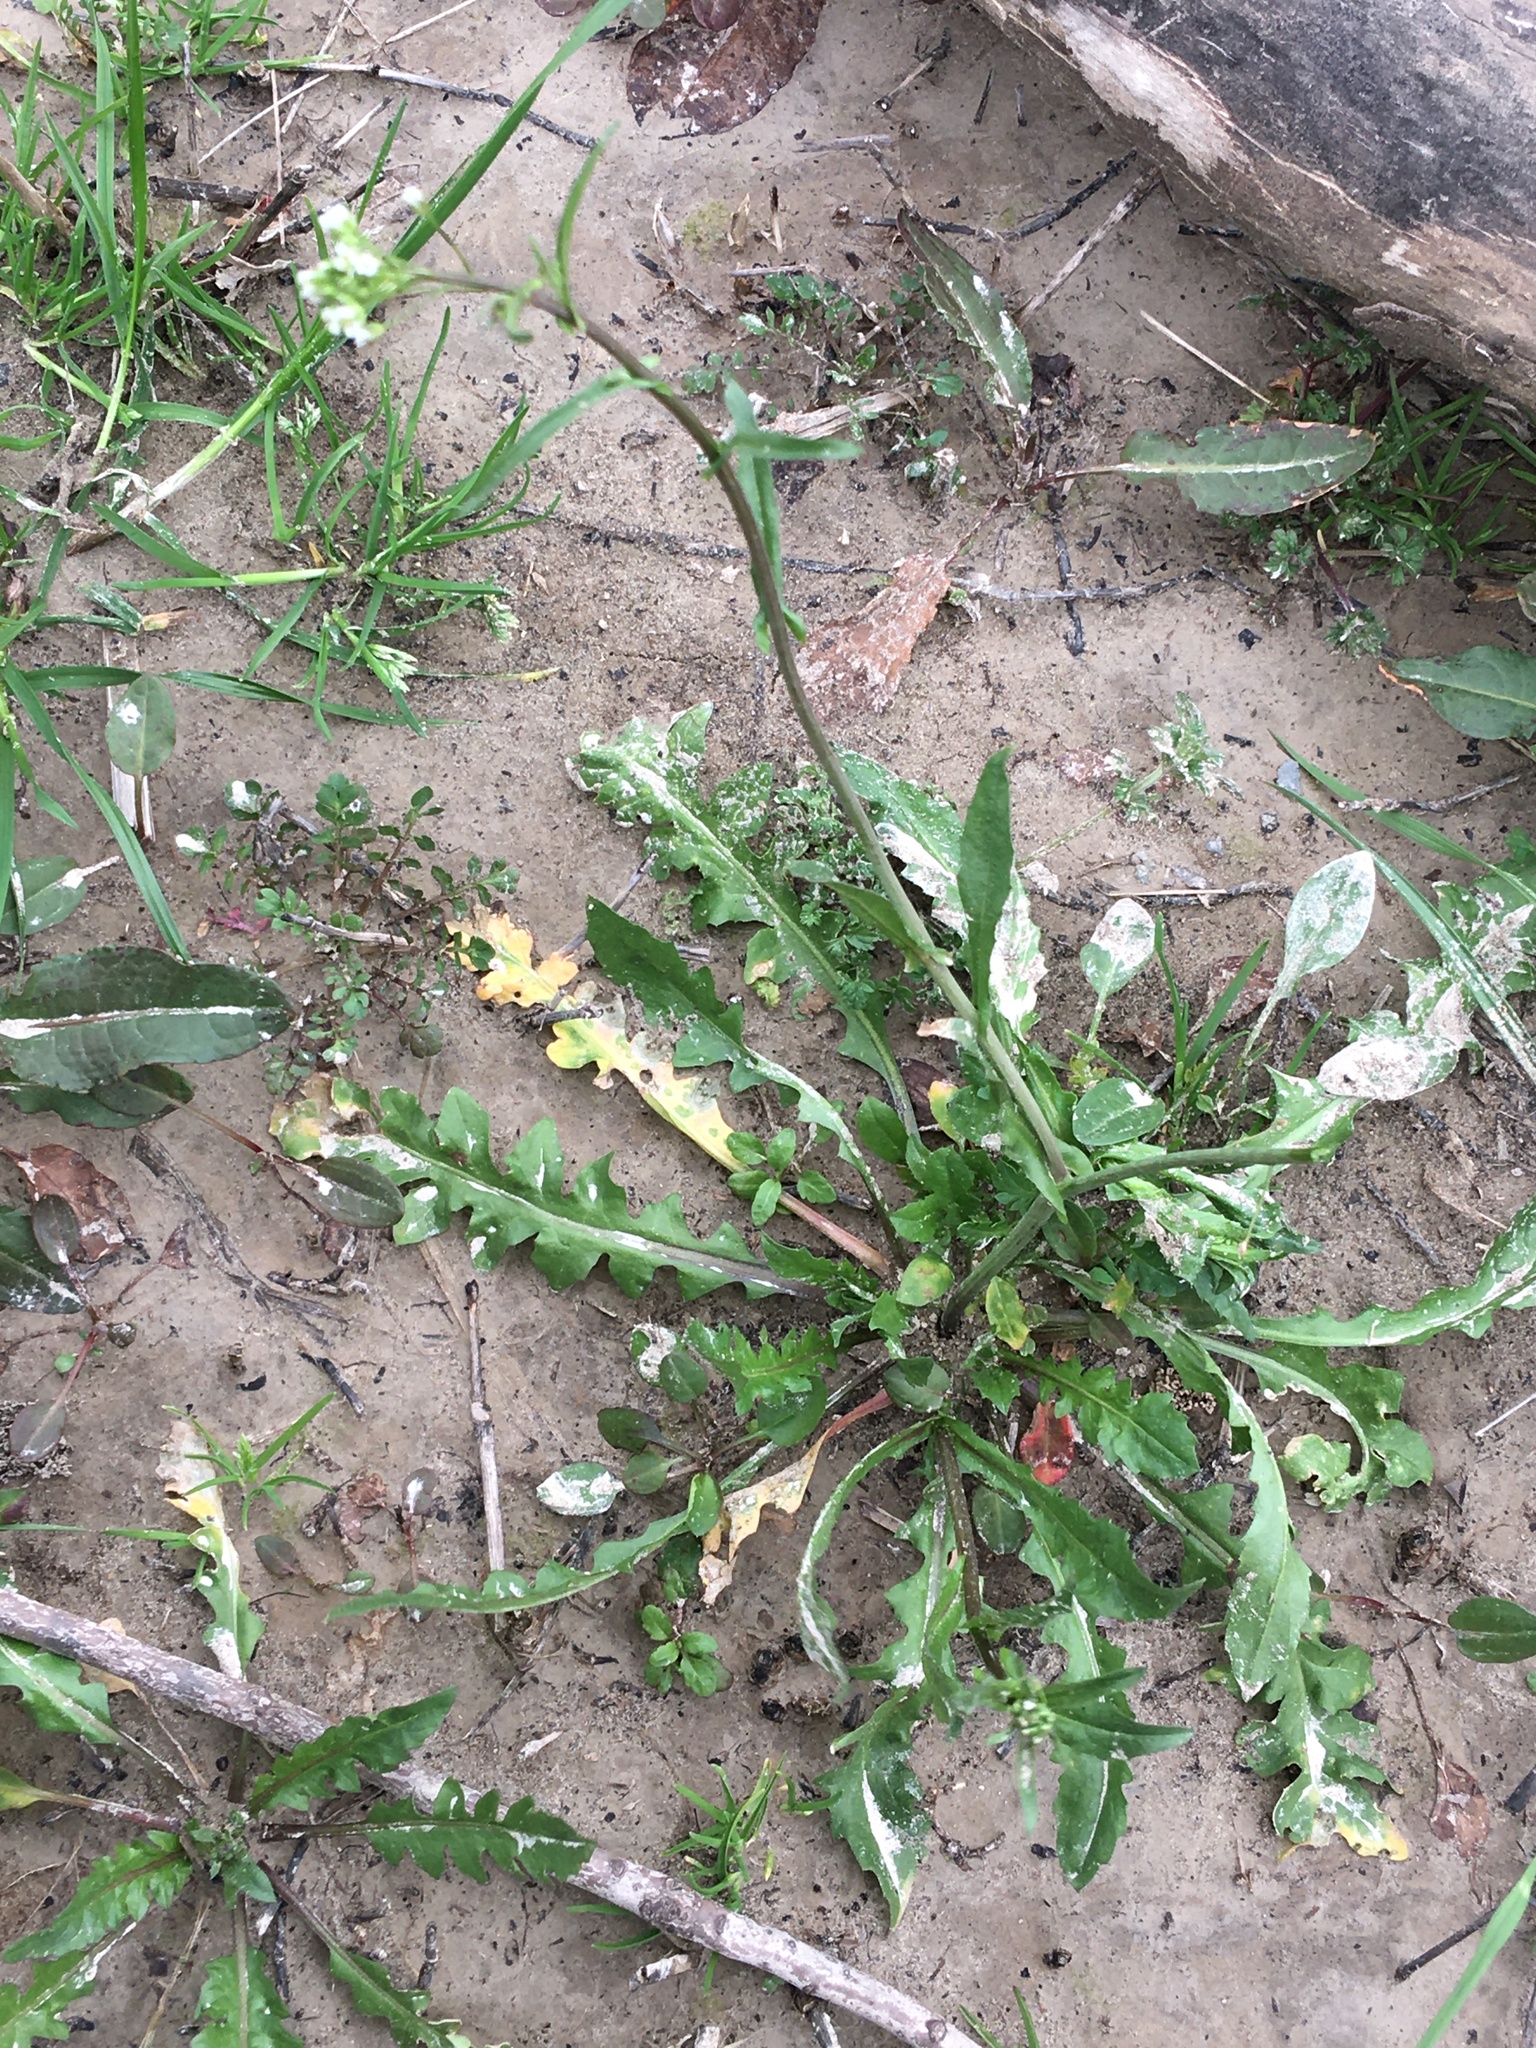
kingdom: Plantae
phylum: Tracheophyta
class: Magnoliopsida
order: Brassicales
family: Brassicaceae
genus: Capsella
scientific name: Capsella bursa-pastoris
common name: Shepherd's purse
